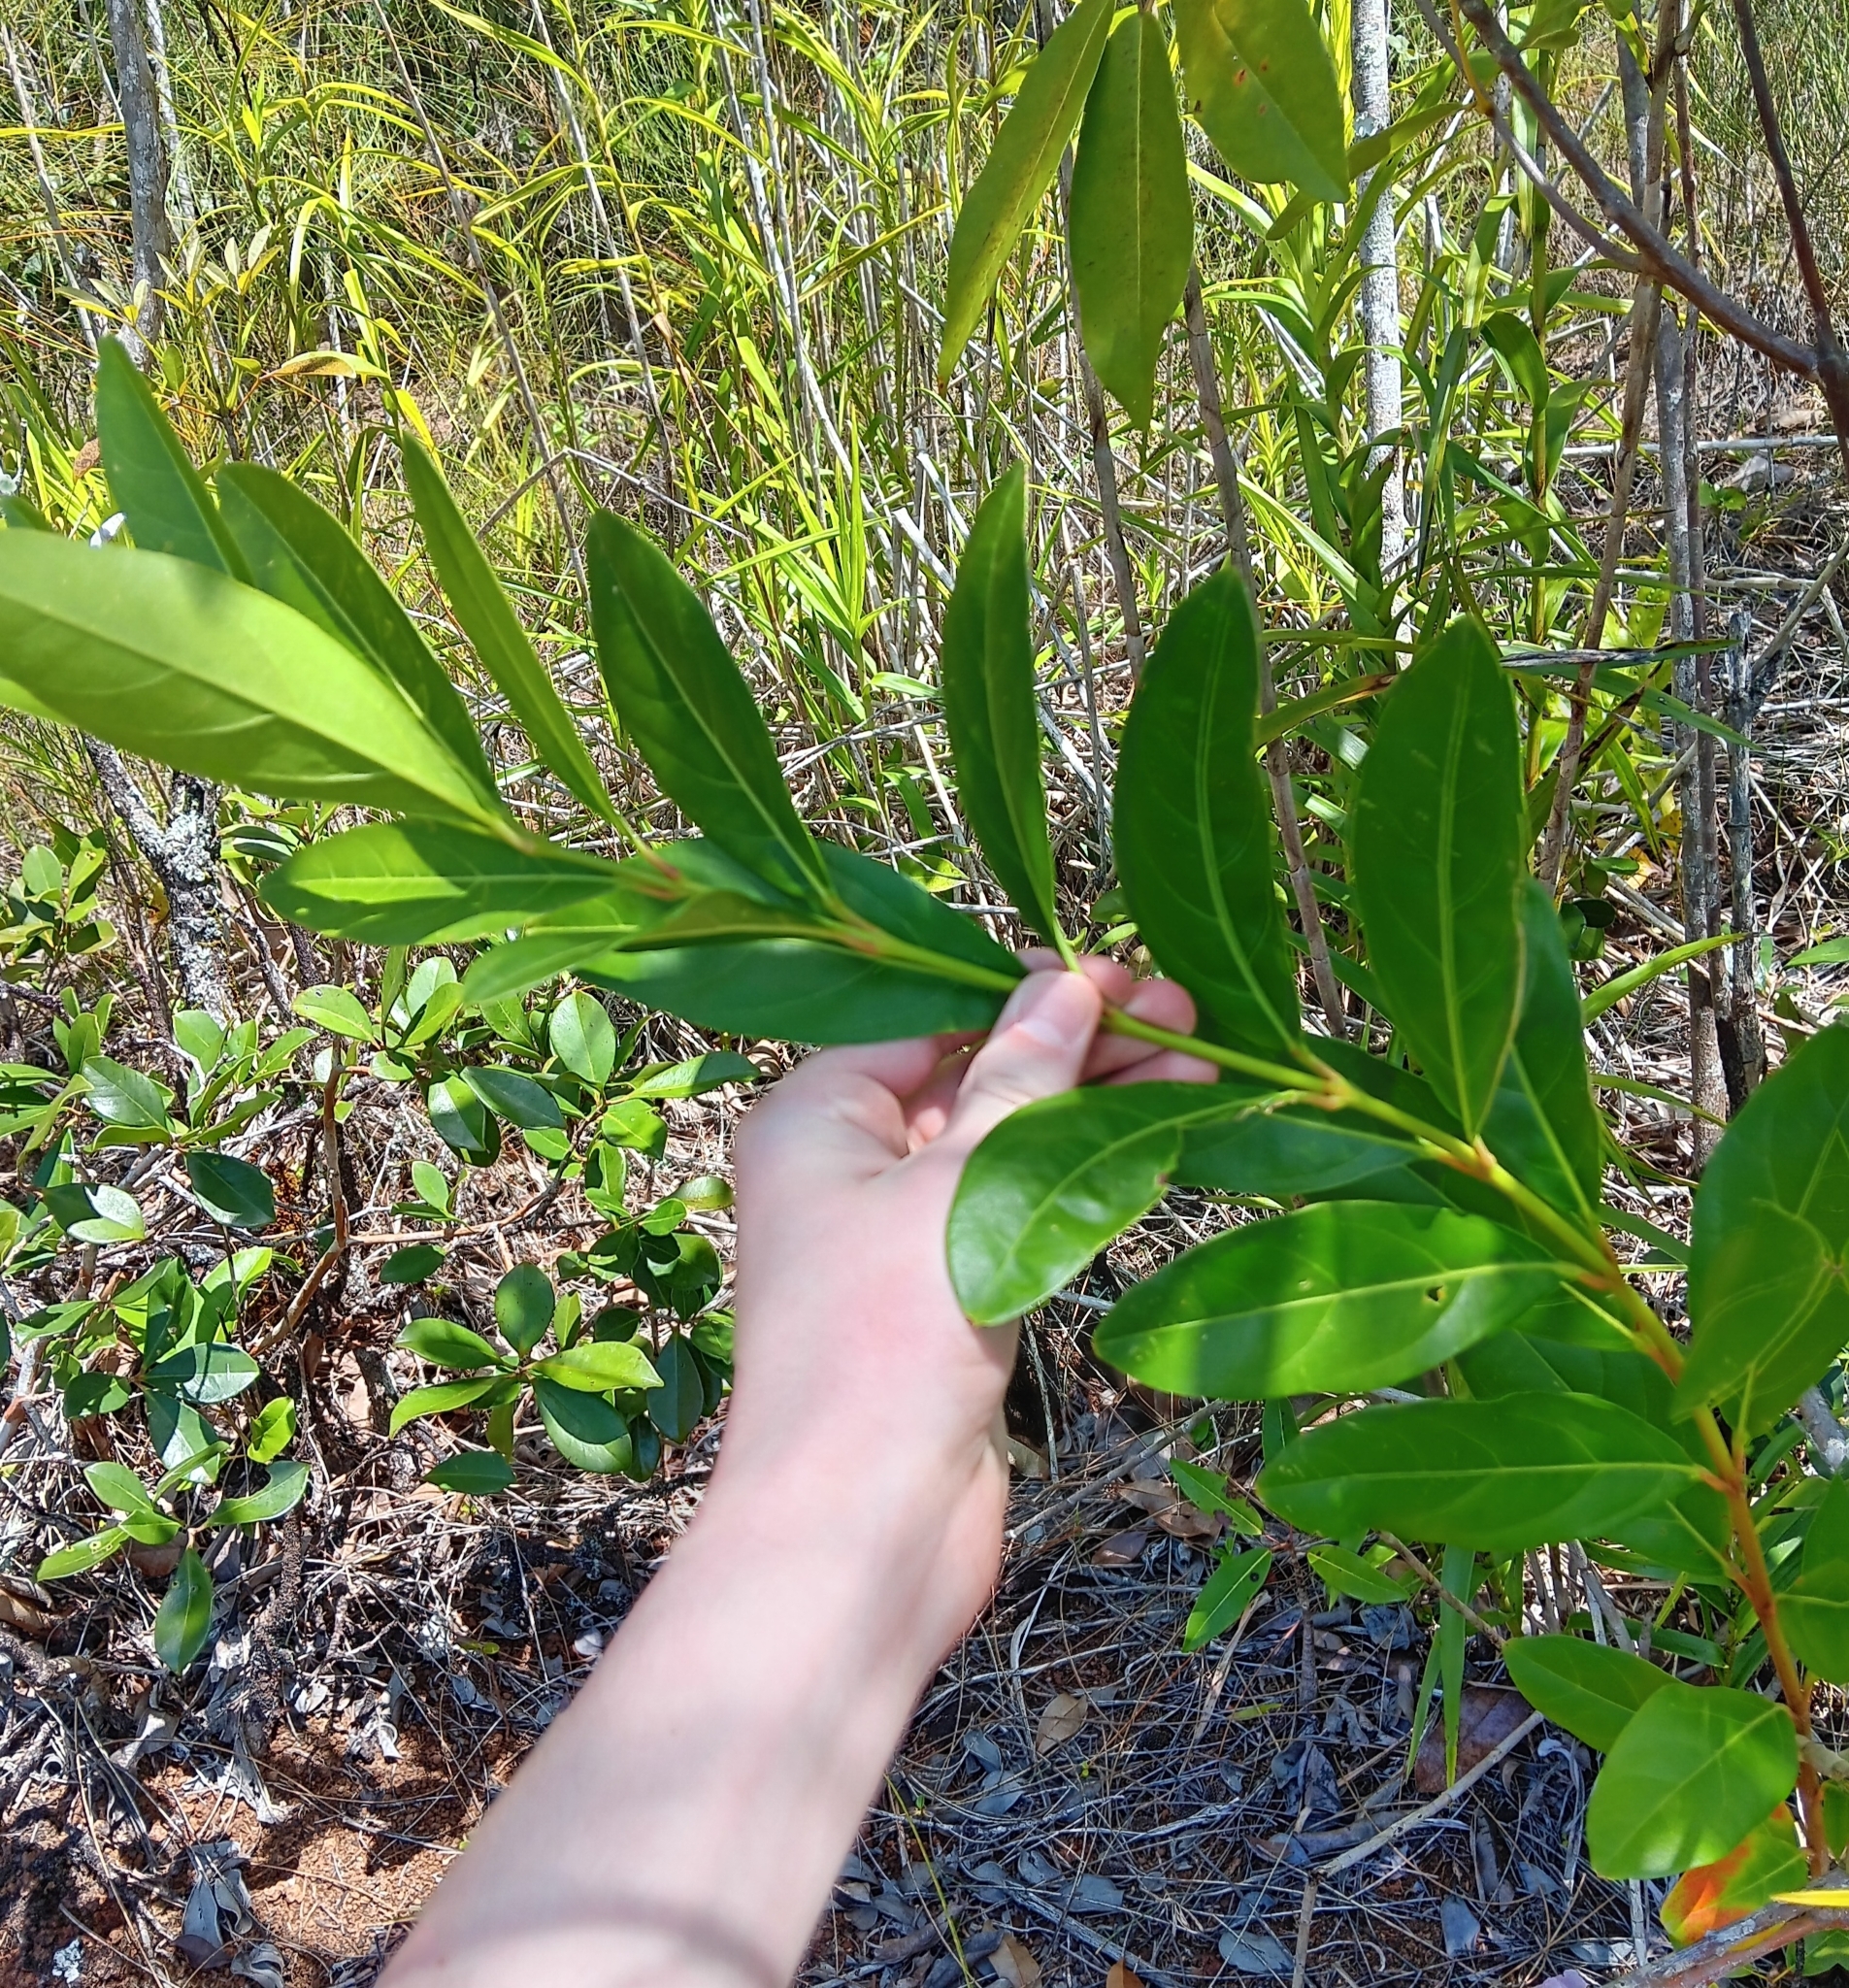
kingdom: Plantae
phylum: Tracheophyta
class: Magnoliopsida
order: Lamiales
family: Bignoniaceae
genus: Tabebuia
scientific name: Tabebuia heterophylla
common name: White cedar
